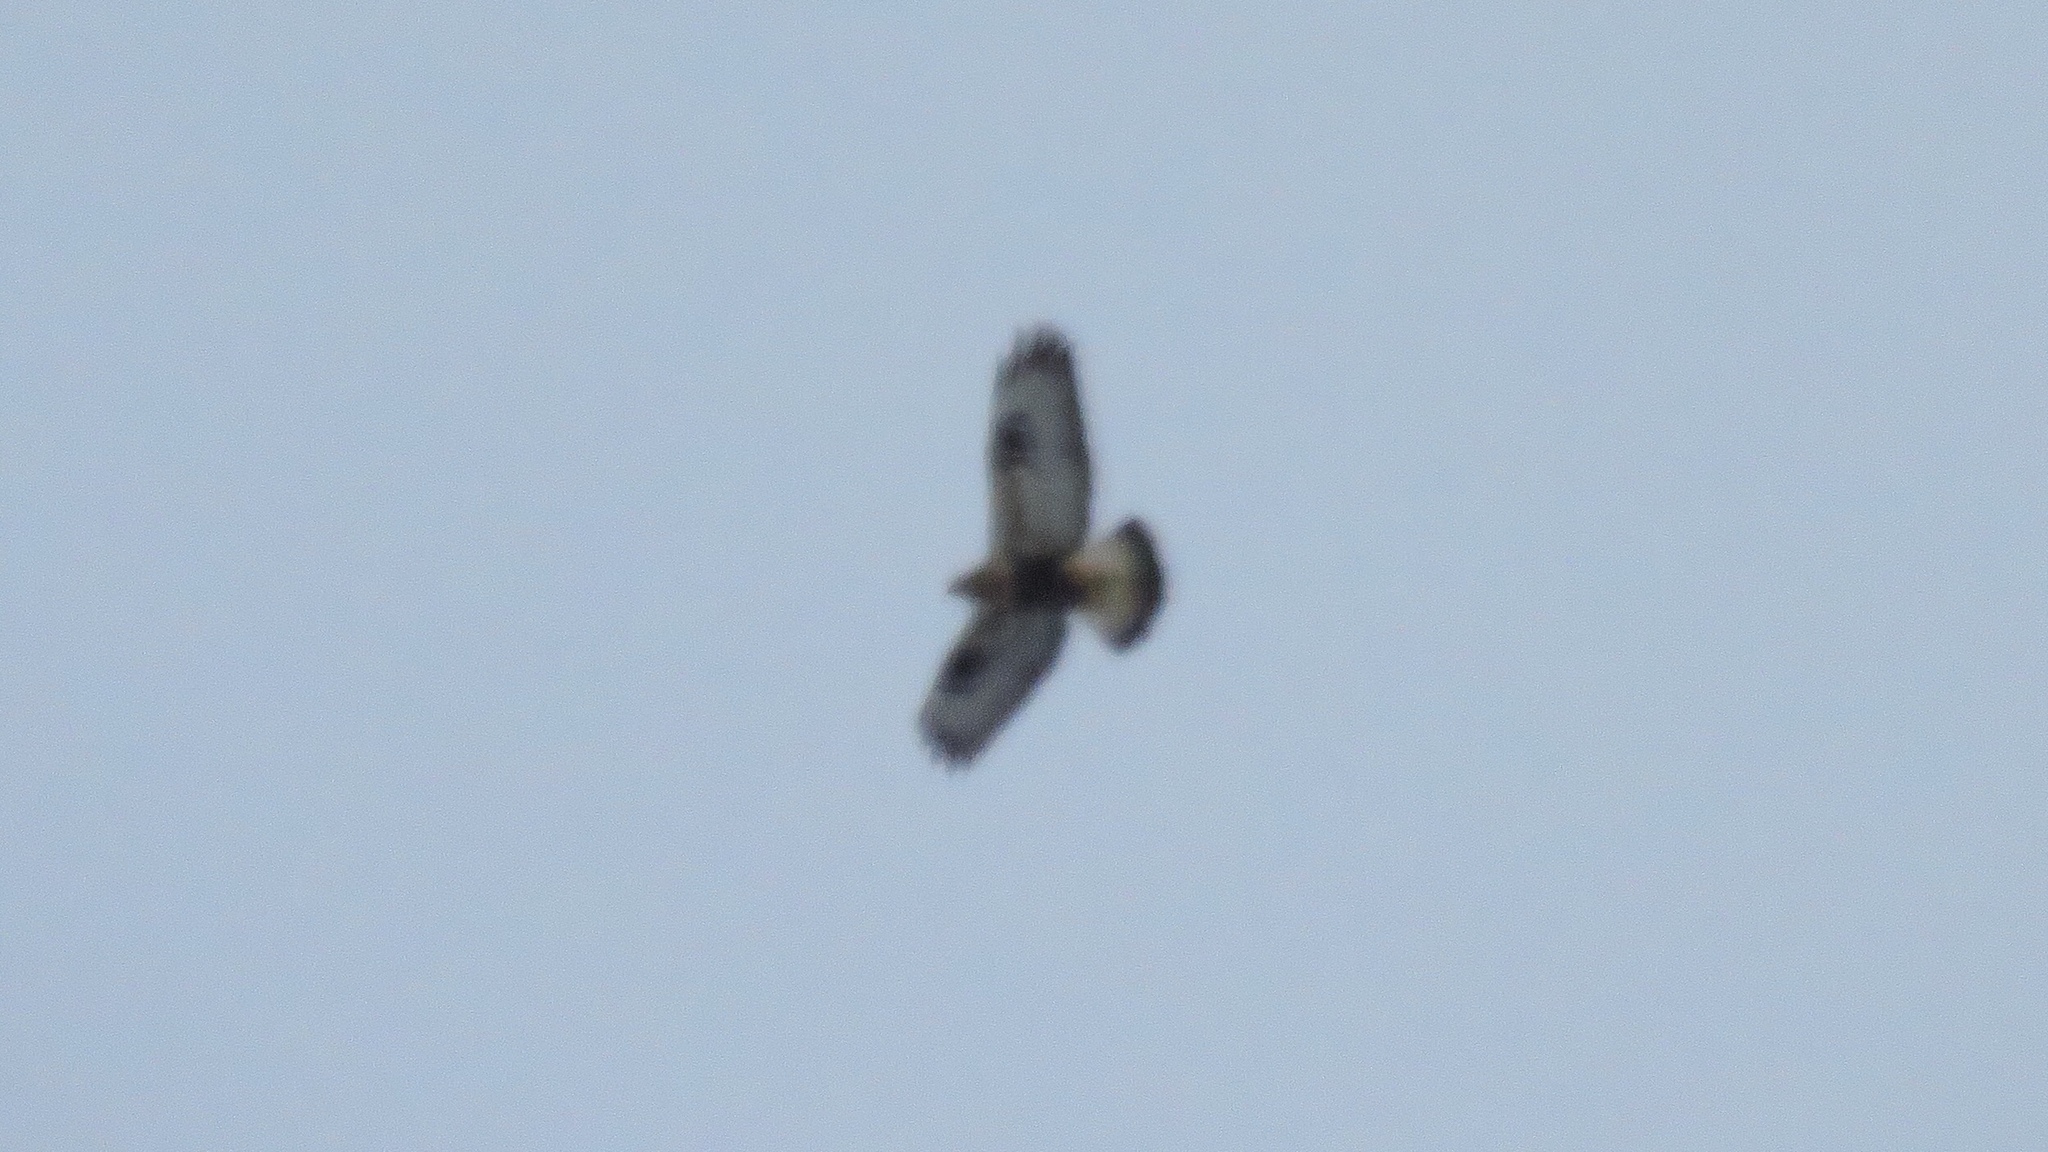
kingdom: Animalia
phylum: Chordata
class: Aves
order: Accipitriformes
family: Accipitridae
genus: Buteo
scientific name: Buteo lagopus
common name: Rough-legged buzzard
